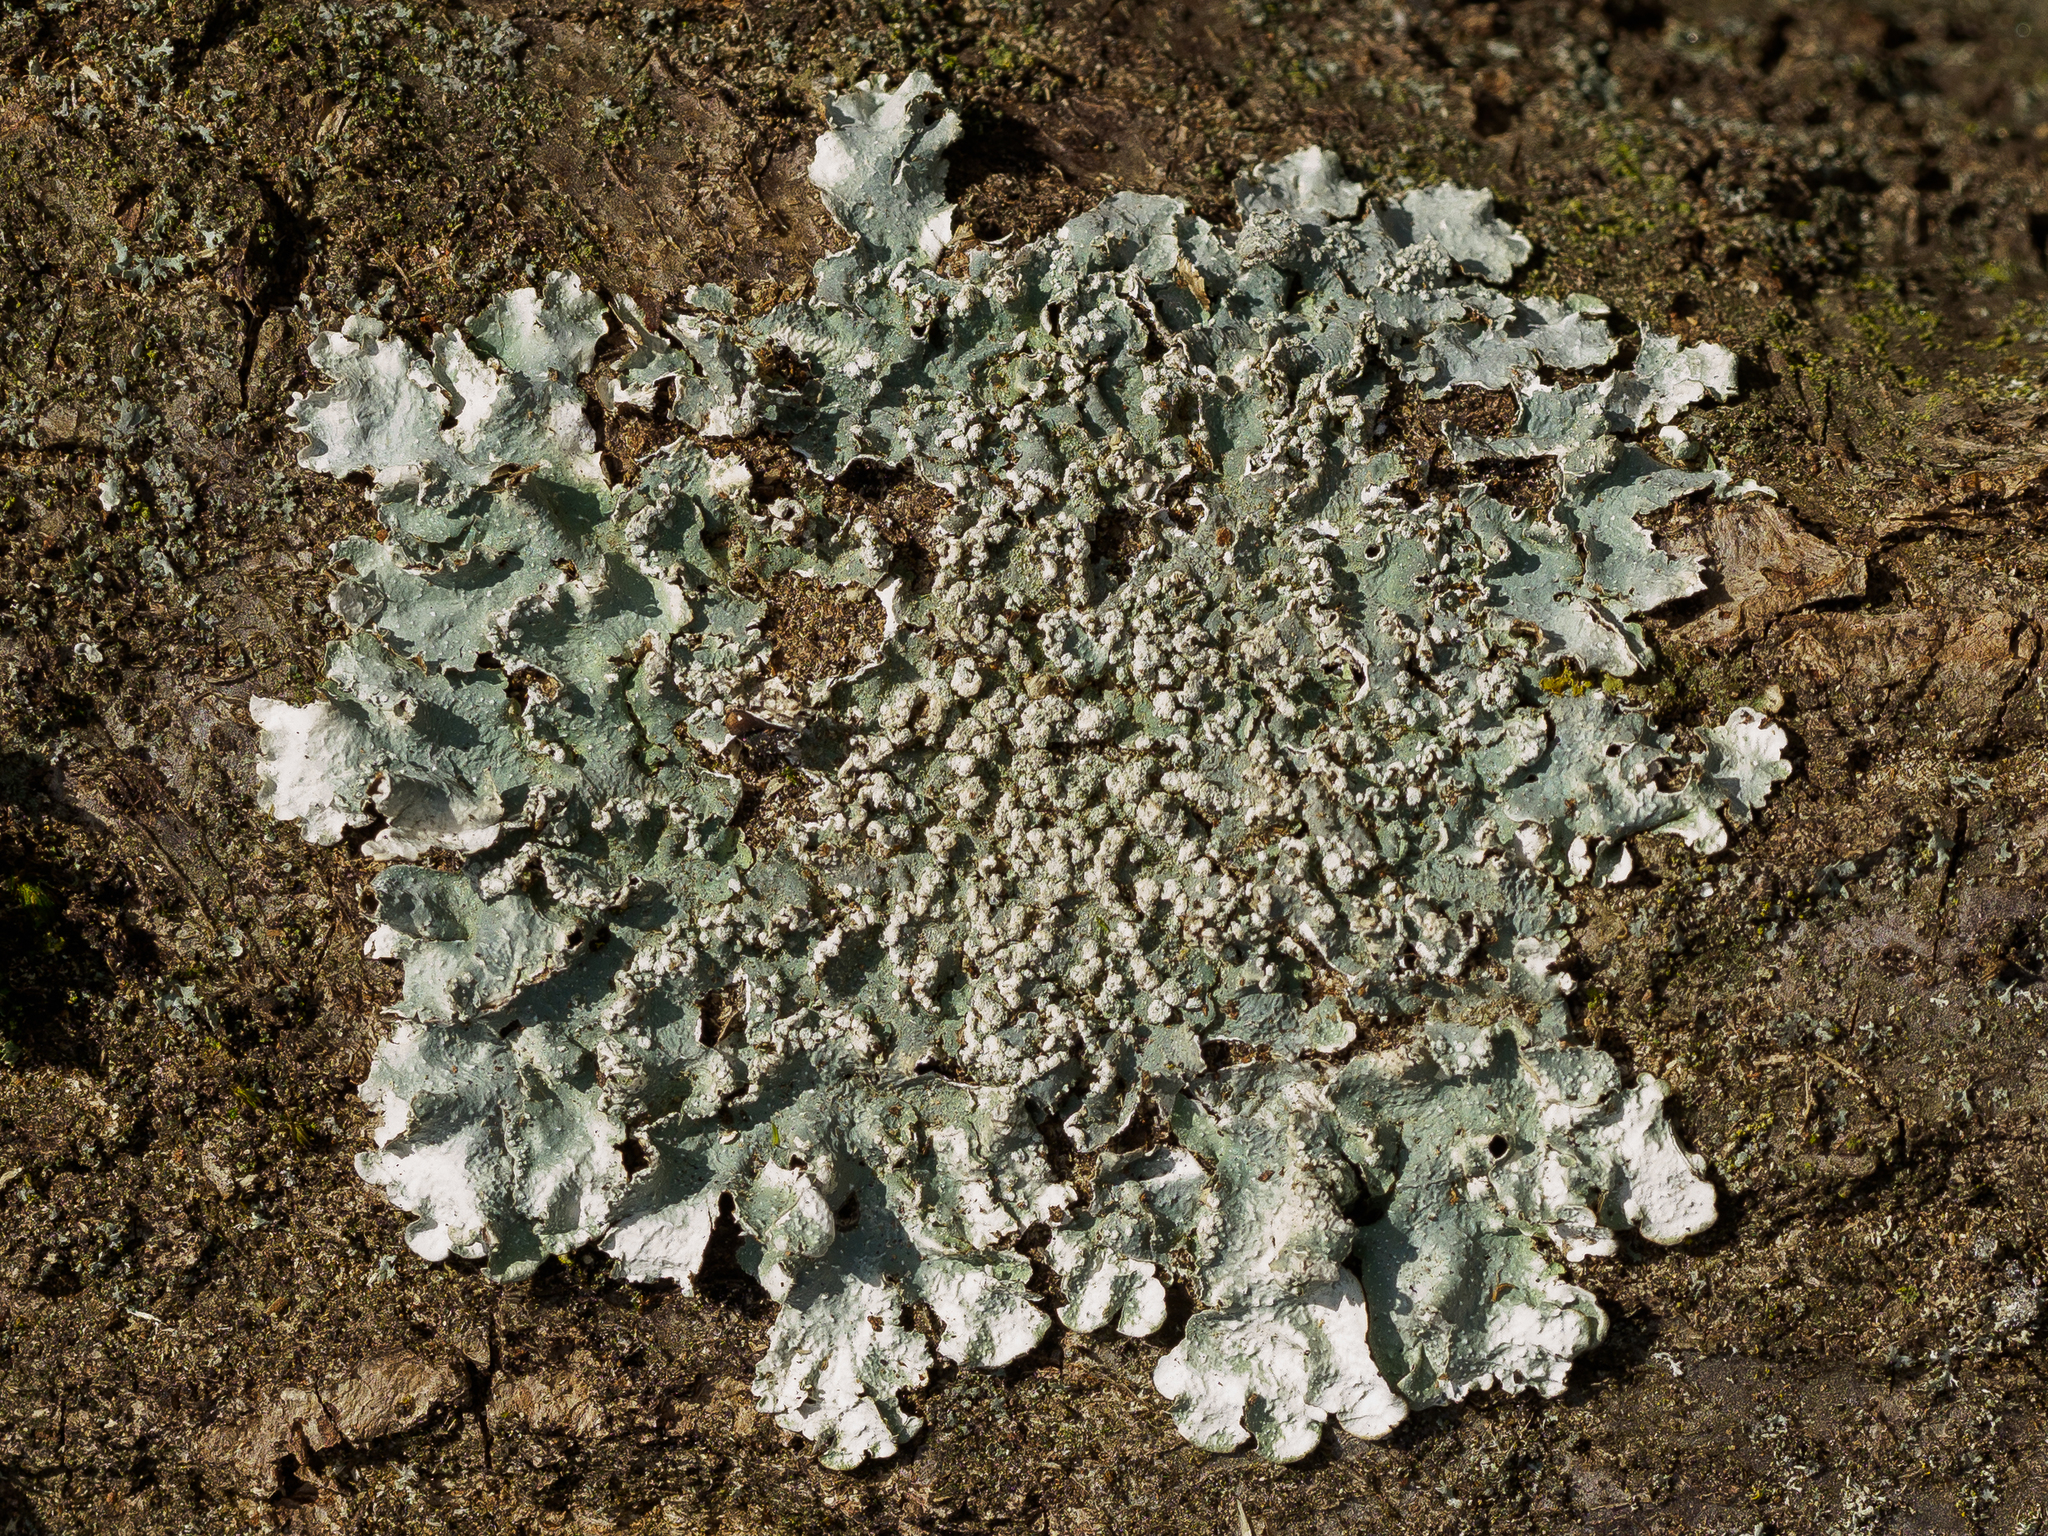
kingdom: Fungi
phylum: Ascomycota
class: Lecanoromycetes
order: Lecanorales
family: Parmeliaceae
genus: Punctelia
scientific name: Punctelia subrudecta
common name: Powdered speckled shield lichen
